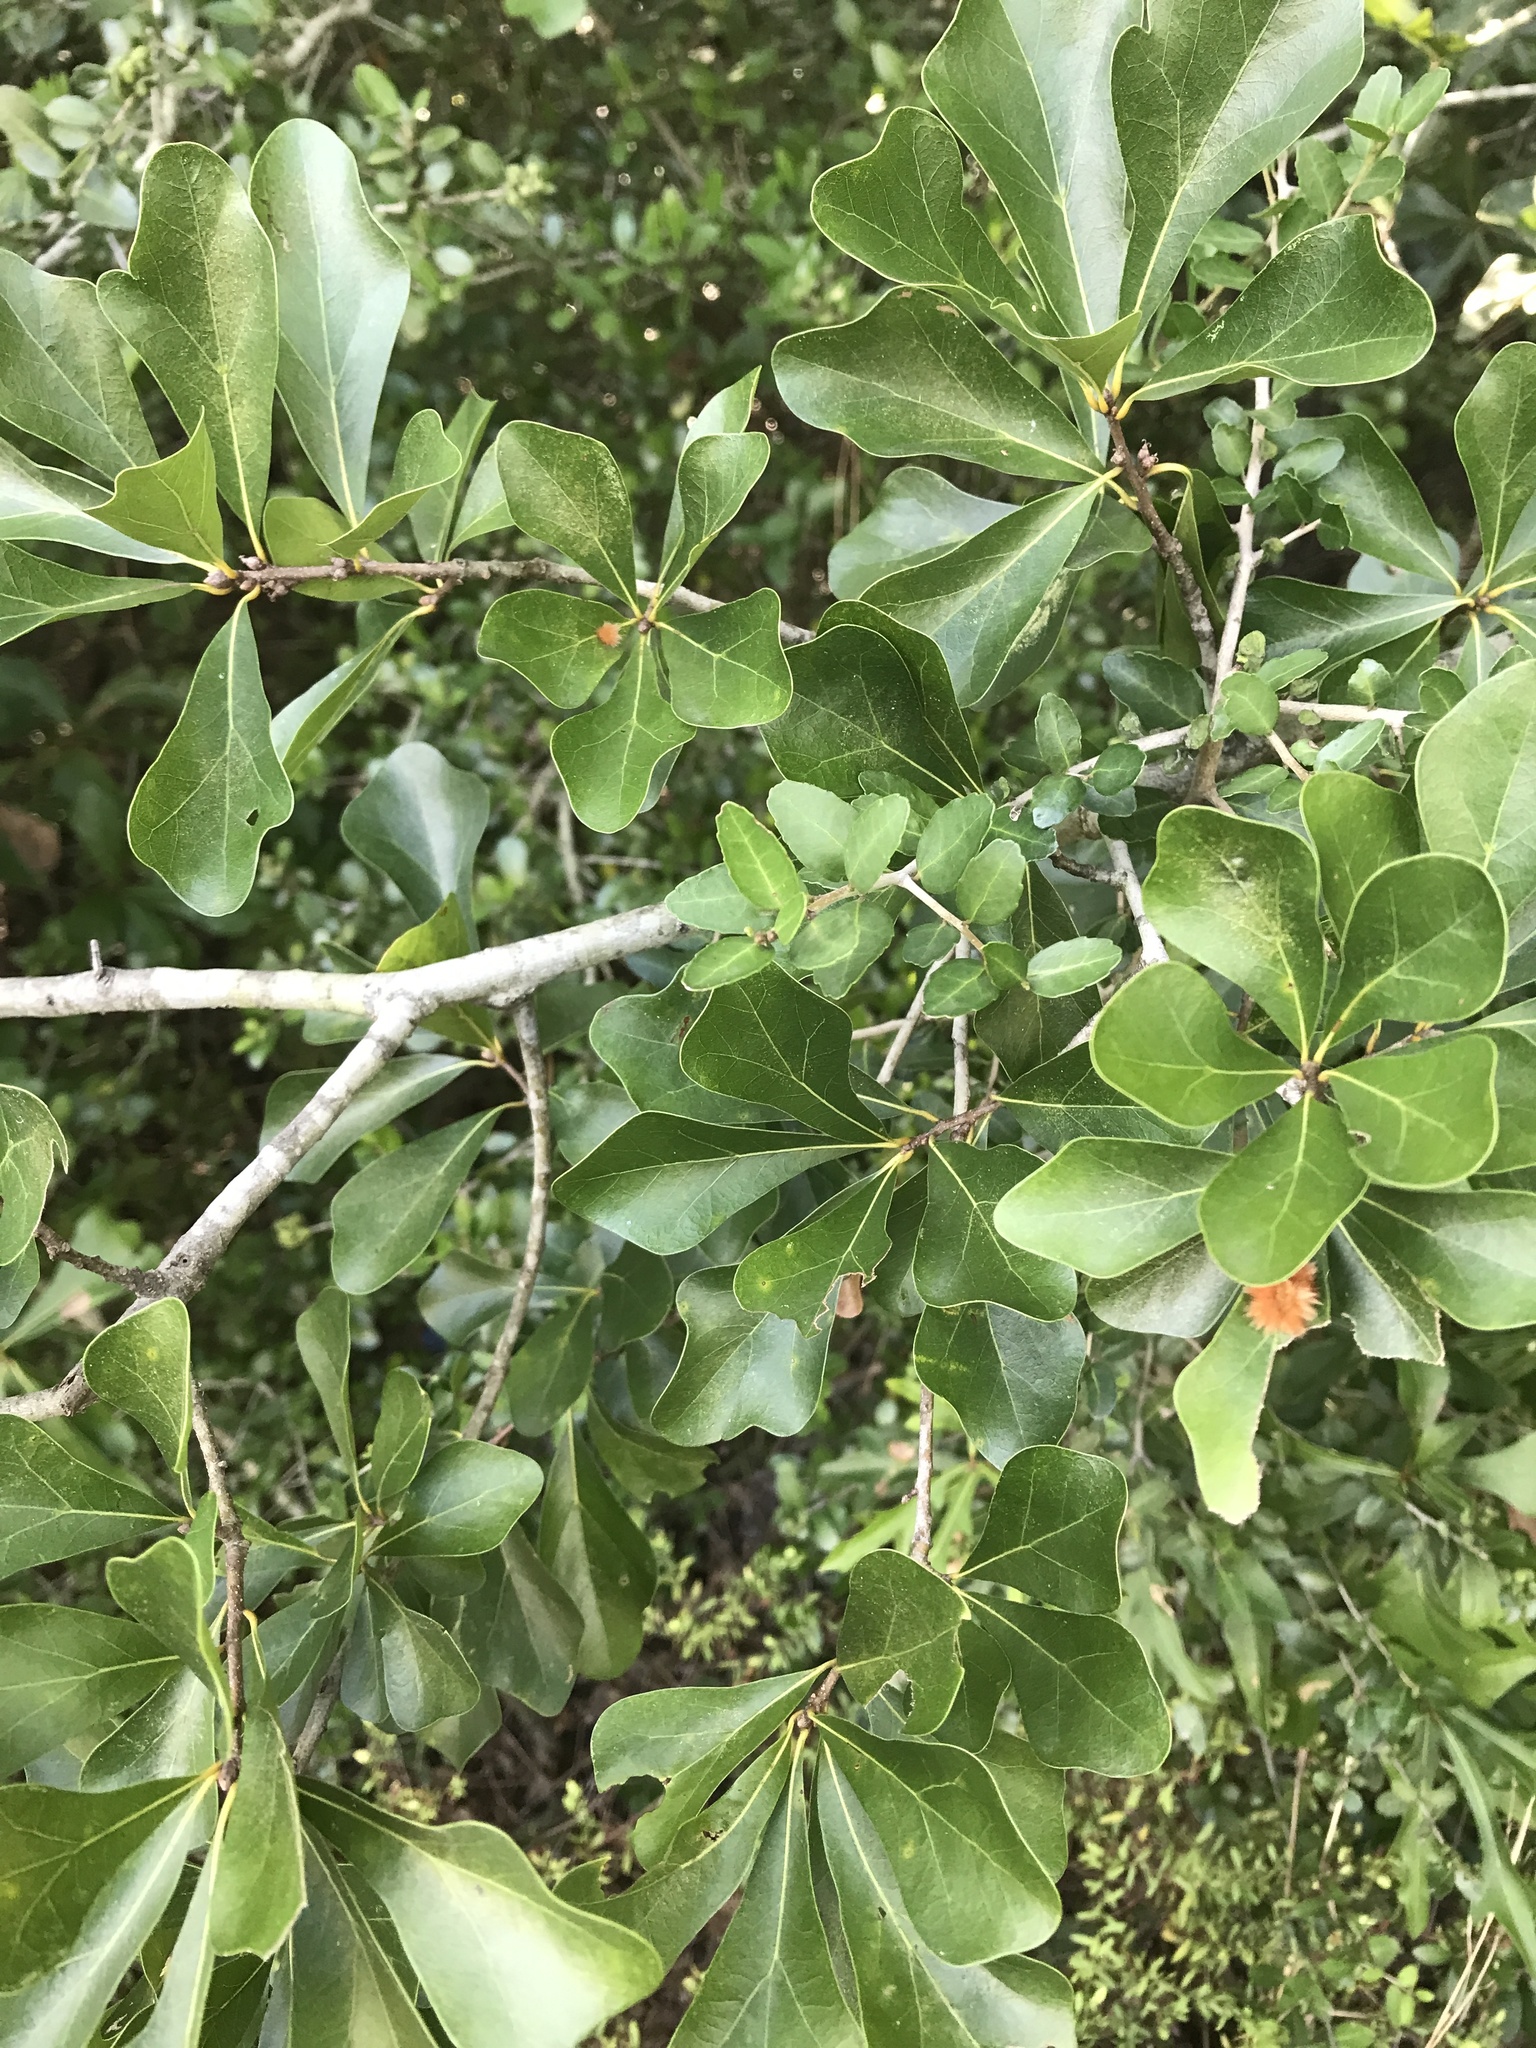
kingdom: Plantae
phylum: Tracheophyta
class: Magnoliopsida
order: Fagales
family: Fagaceae
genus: Quercus
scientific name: Quercus nigra
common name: Water oak
